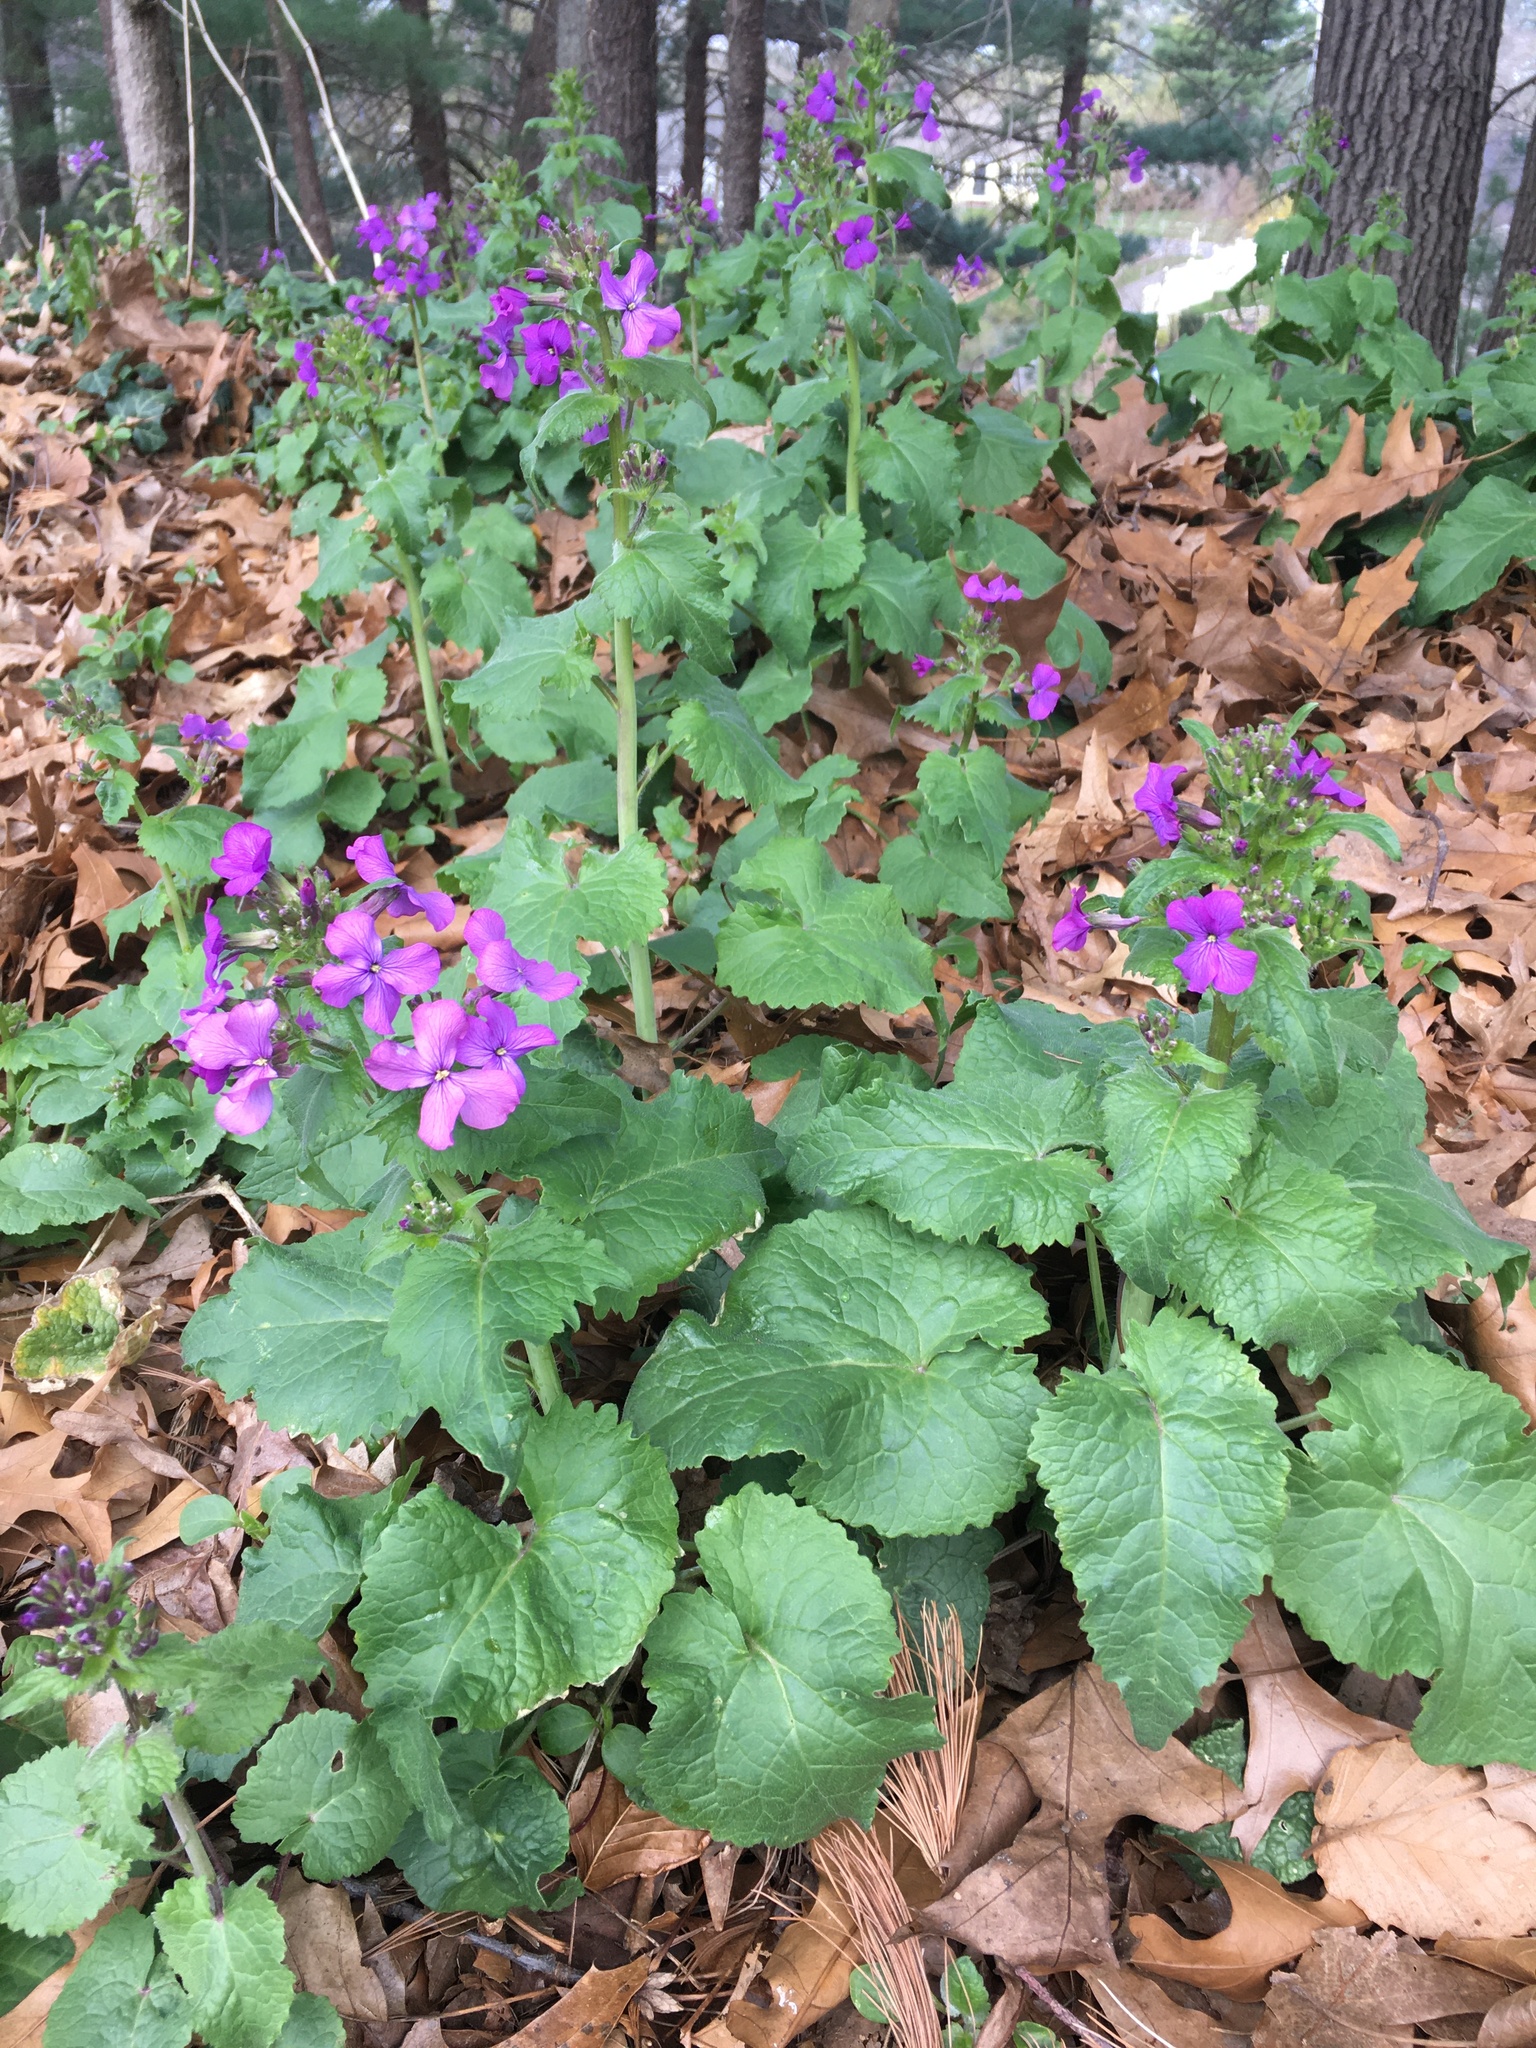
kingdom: Plantae
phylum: Tracheophyta
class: Magnoliopsida
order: Brassicales
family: Brassicaceae
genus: Lunaria
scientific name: Lunaria annua
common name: Honesty
